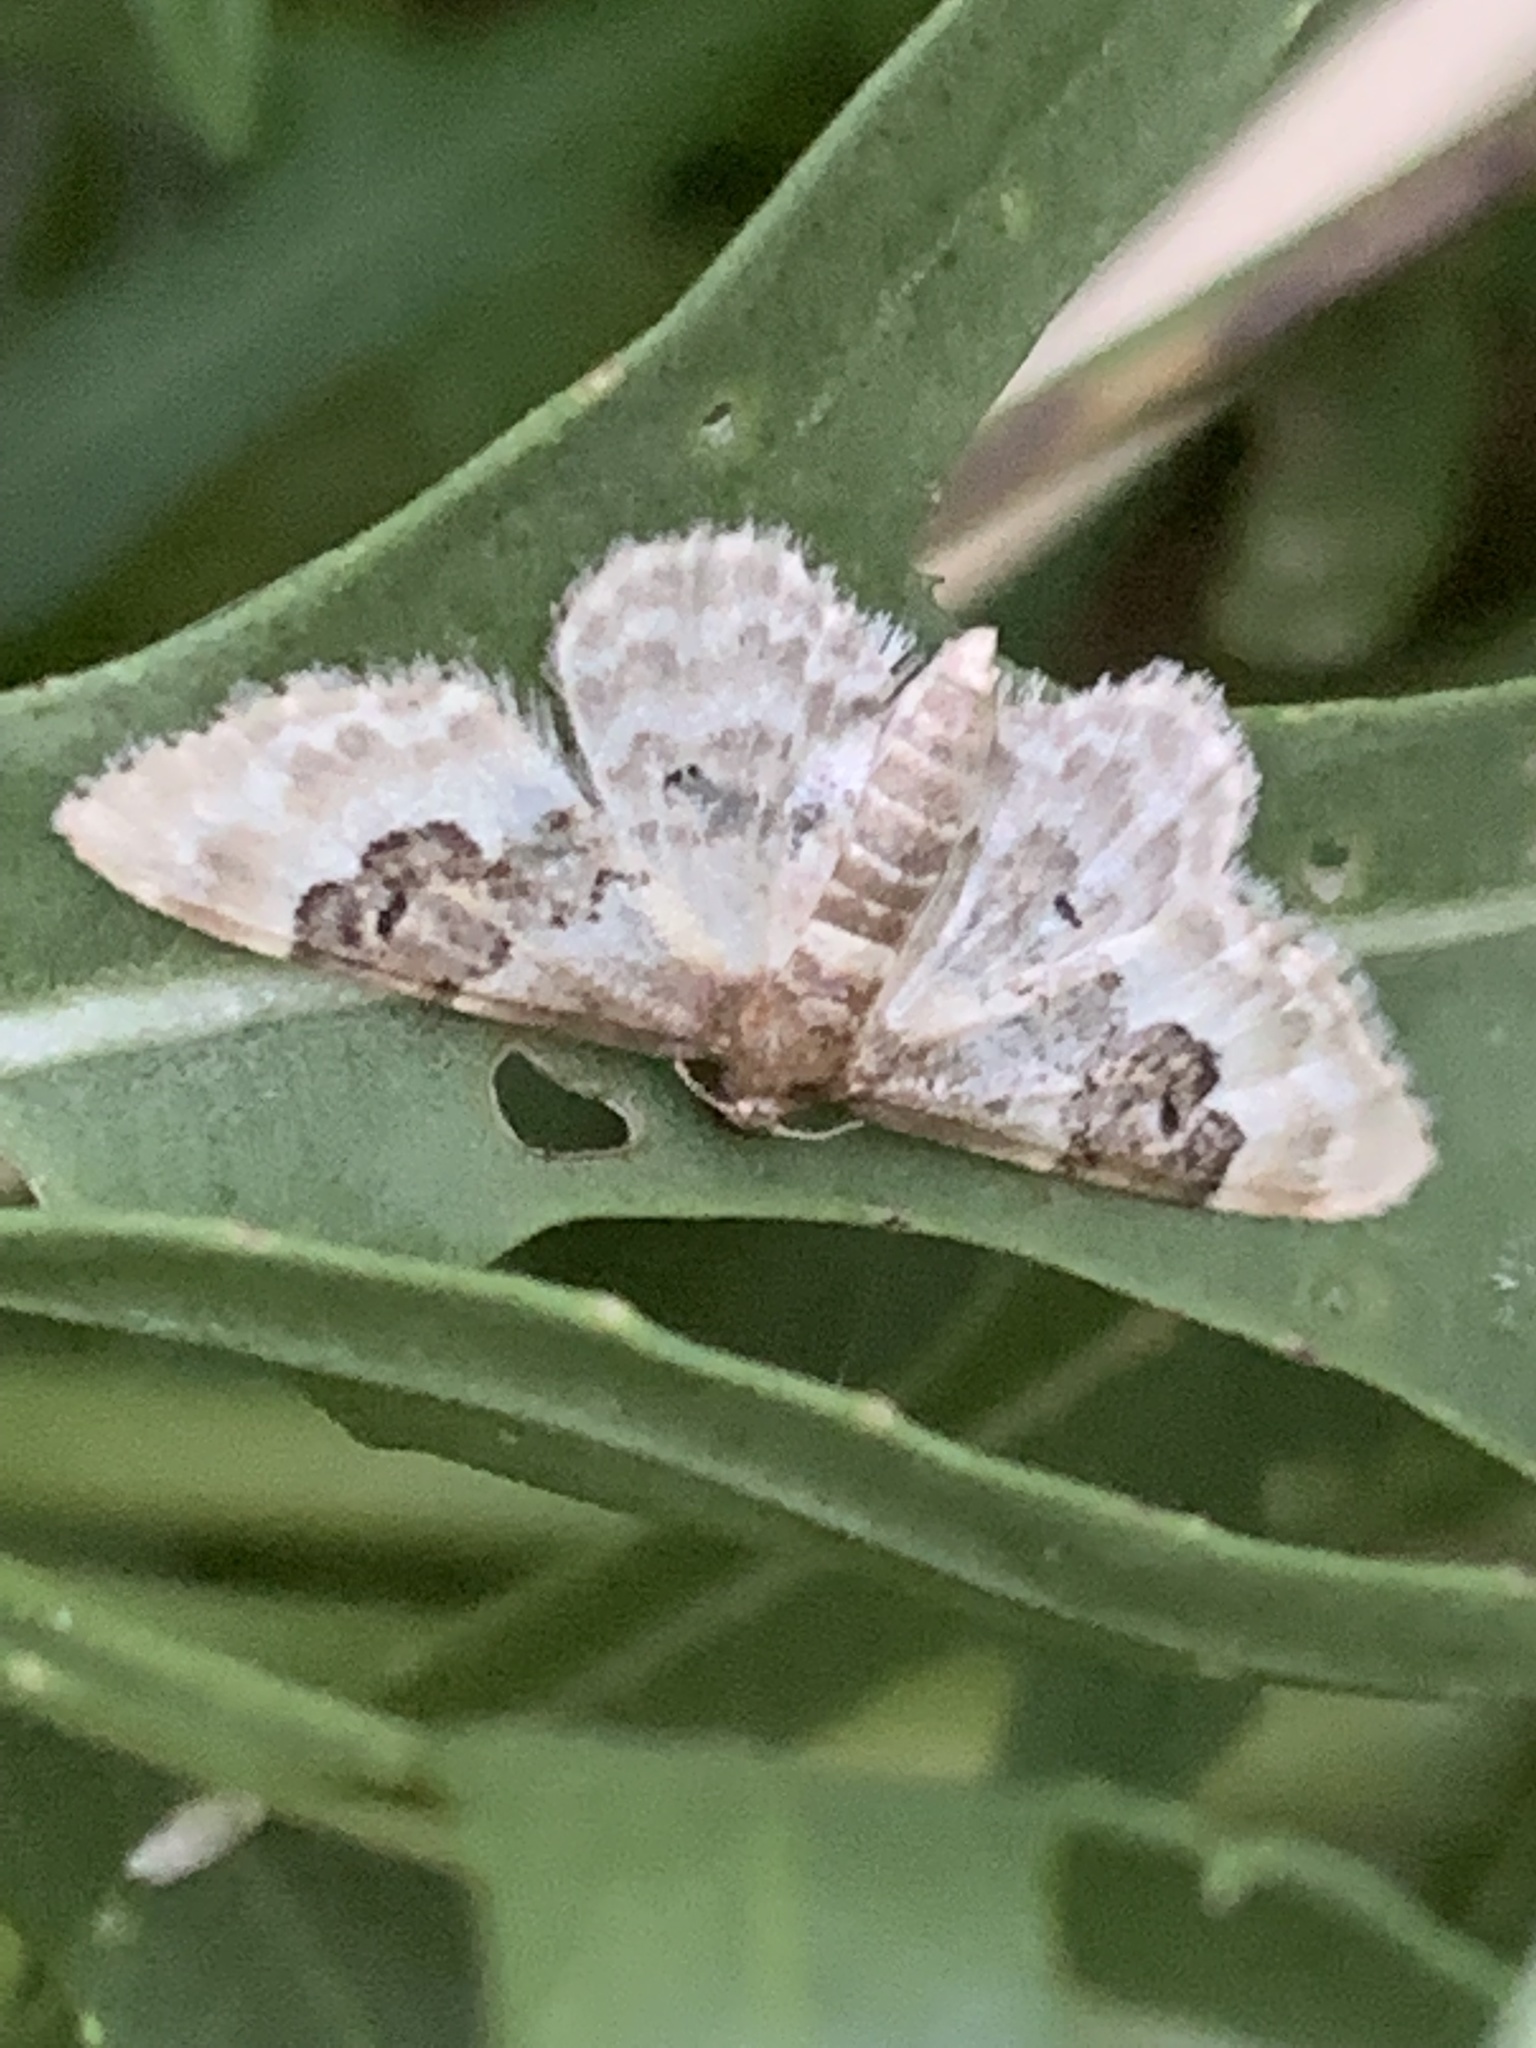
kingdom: Animalia
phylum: Arthropoda
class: Insecta
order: Lepidoptera
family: Geometridae
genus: Idaea
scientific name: Idaea rusticata
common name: Least carpet
